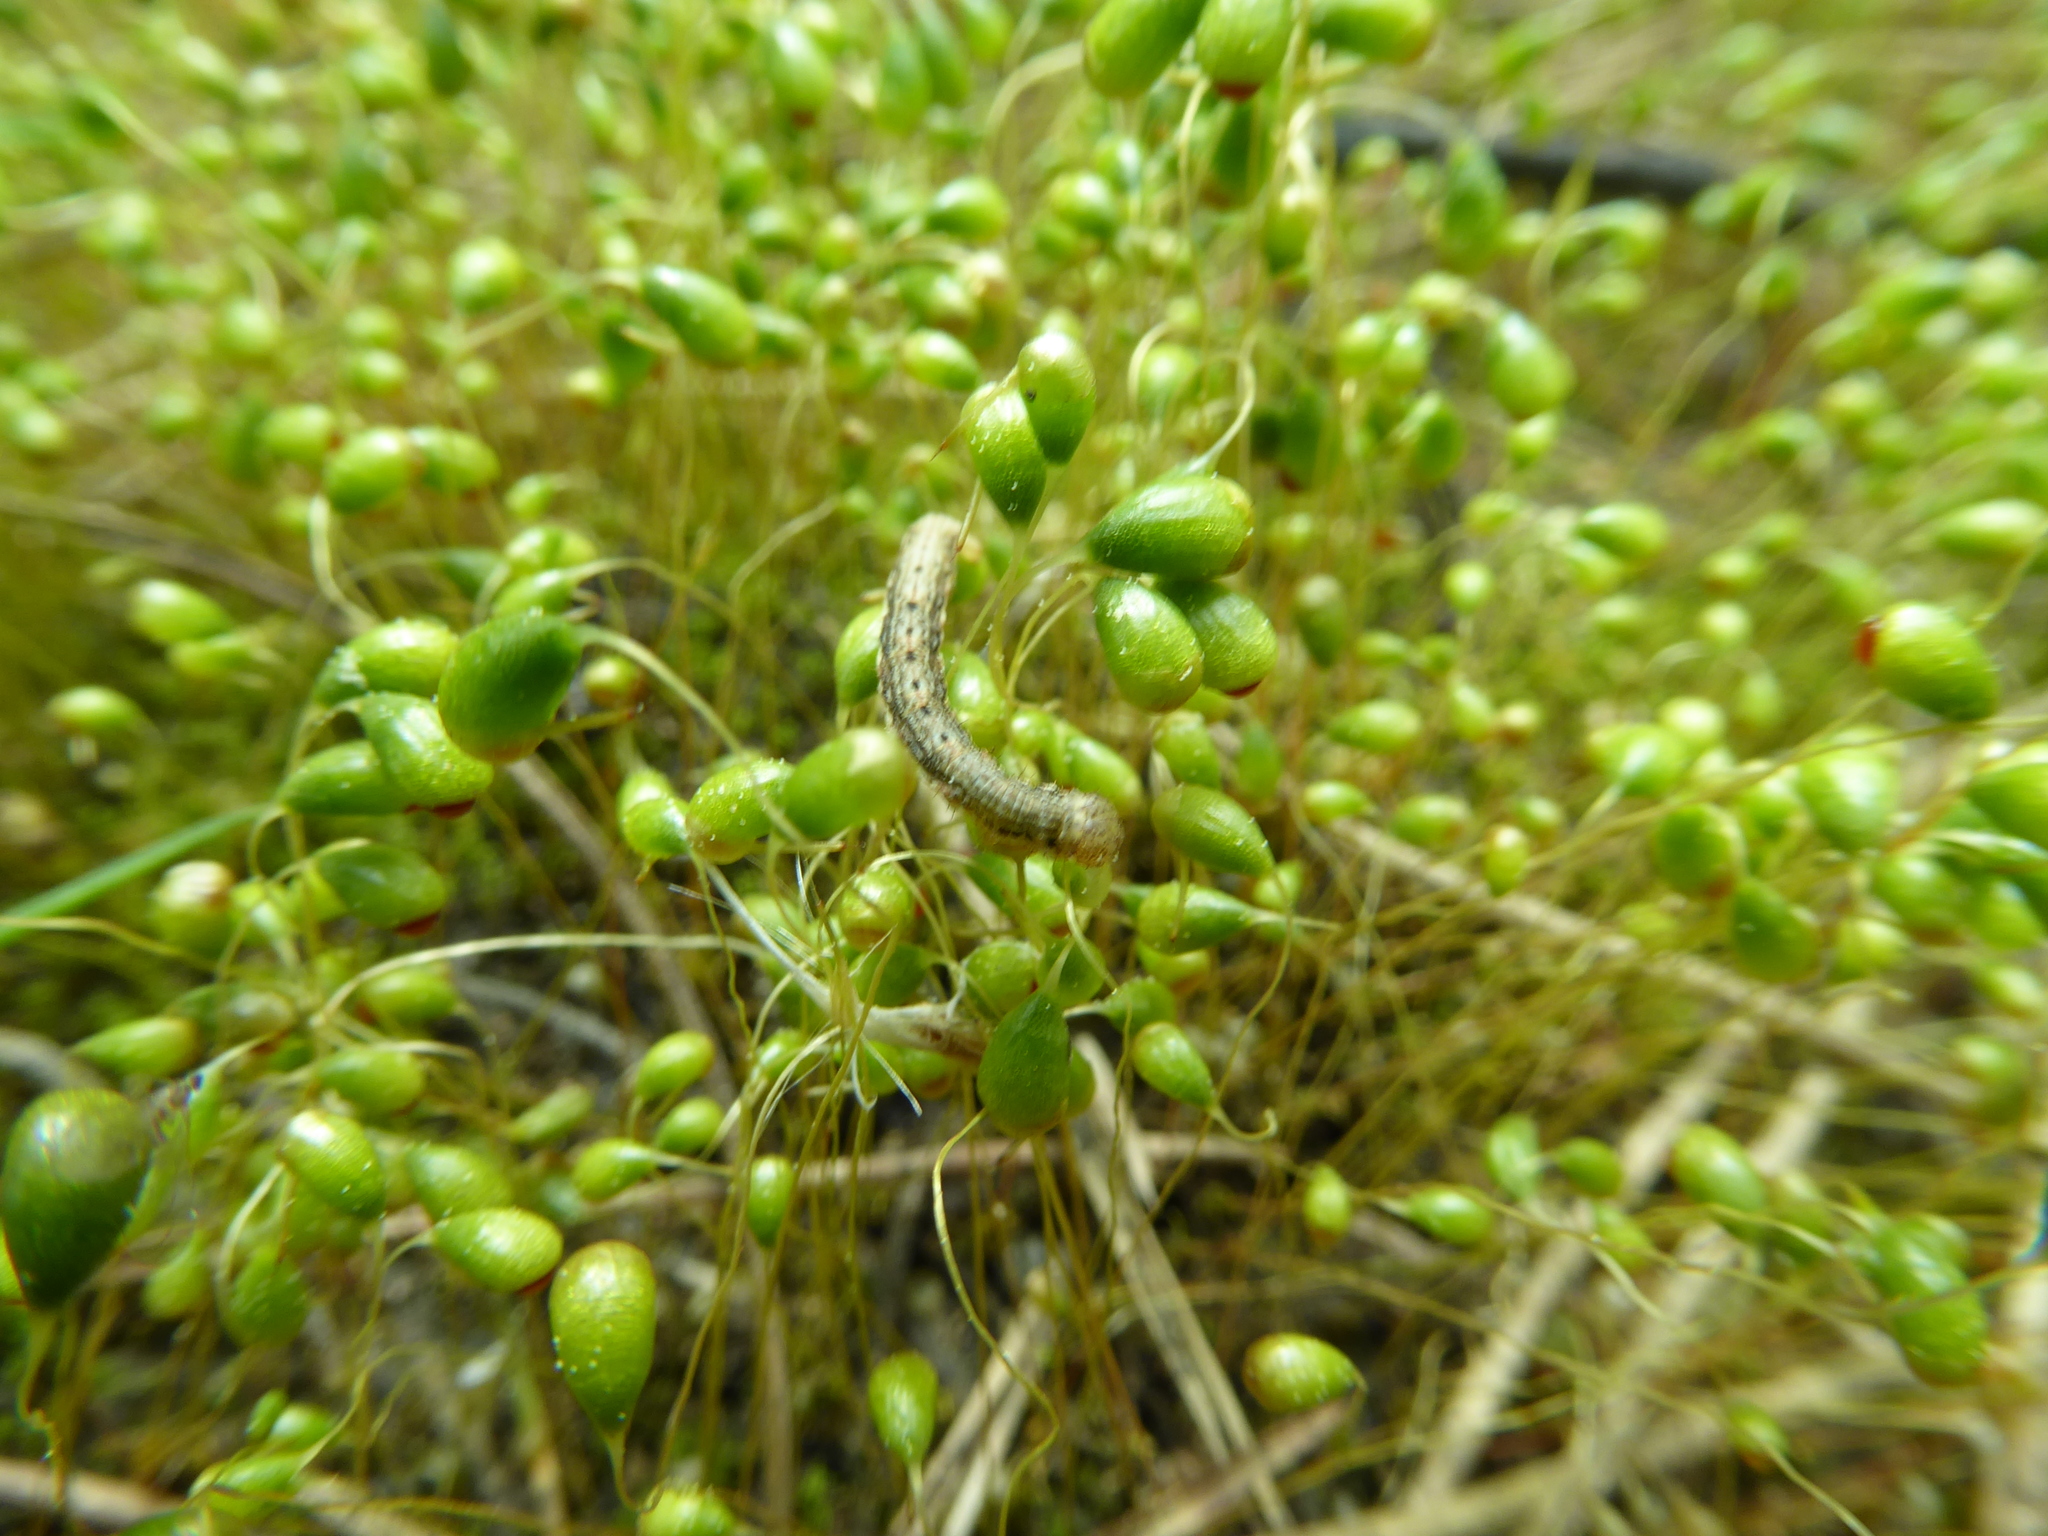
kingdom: Plantae
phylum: Bryophyta
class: Bryopsida
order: Funariales
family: Funariaceae
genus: Funaria
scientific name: Funaria hygrometrica
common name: Common cord moss
